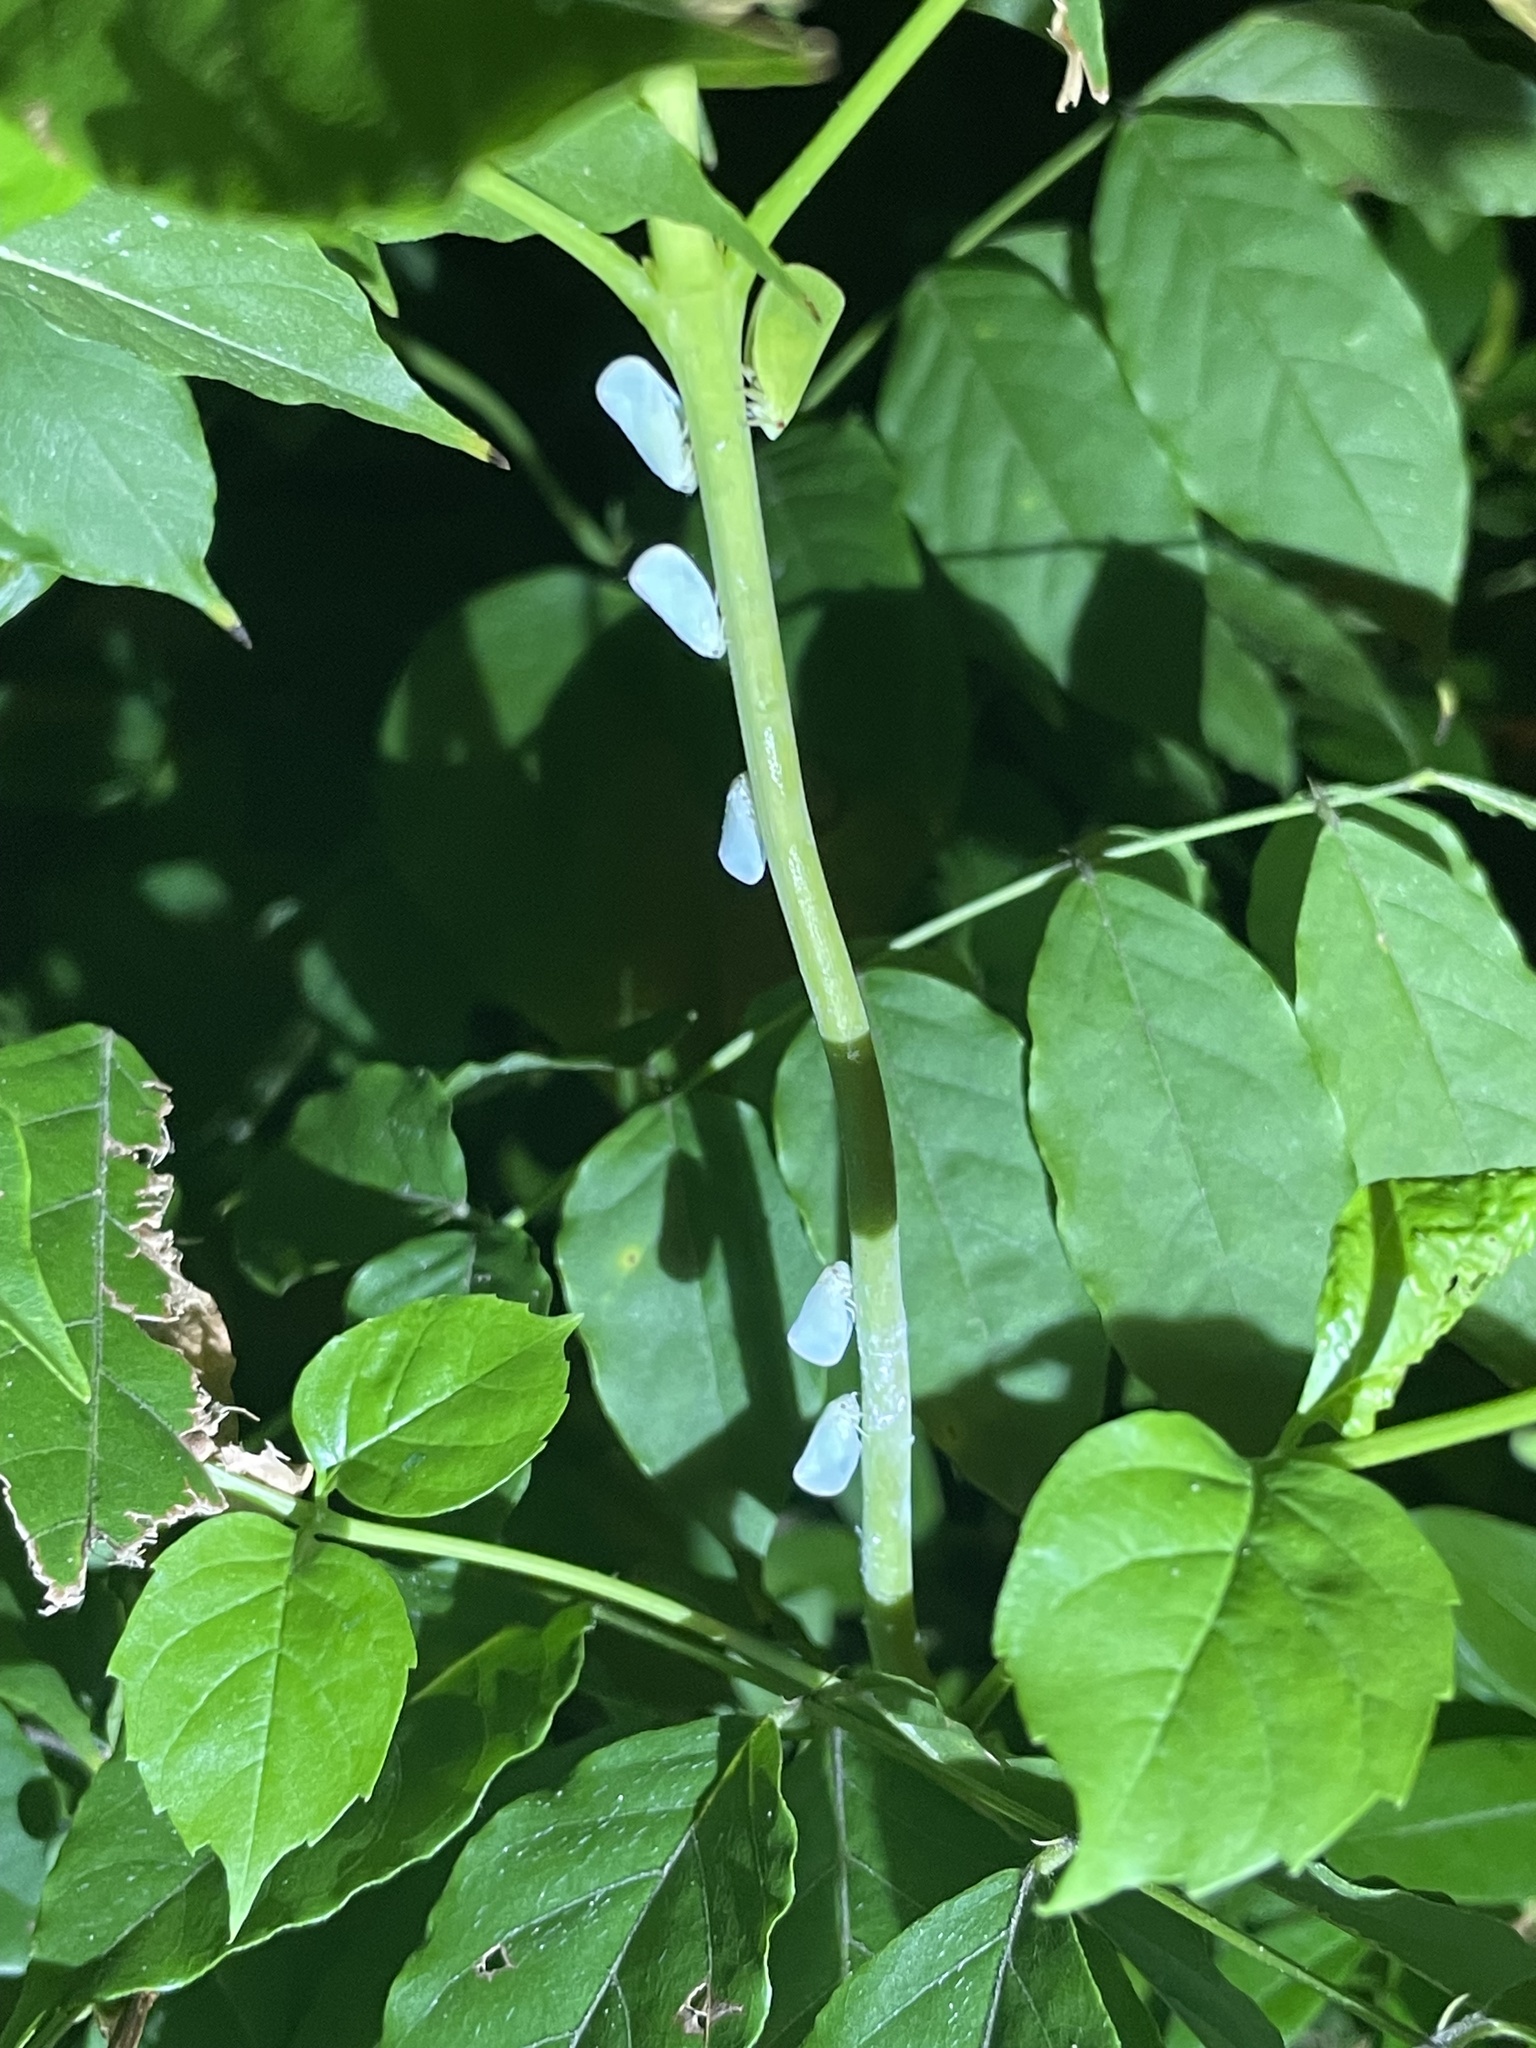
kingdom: Animalia
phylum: Arthropoda
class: Insecta
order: Hemiptera
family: Flatidae
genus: Ormenoides
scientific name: Ormenoides venusta
